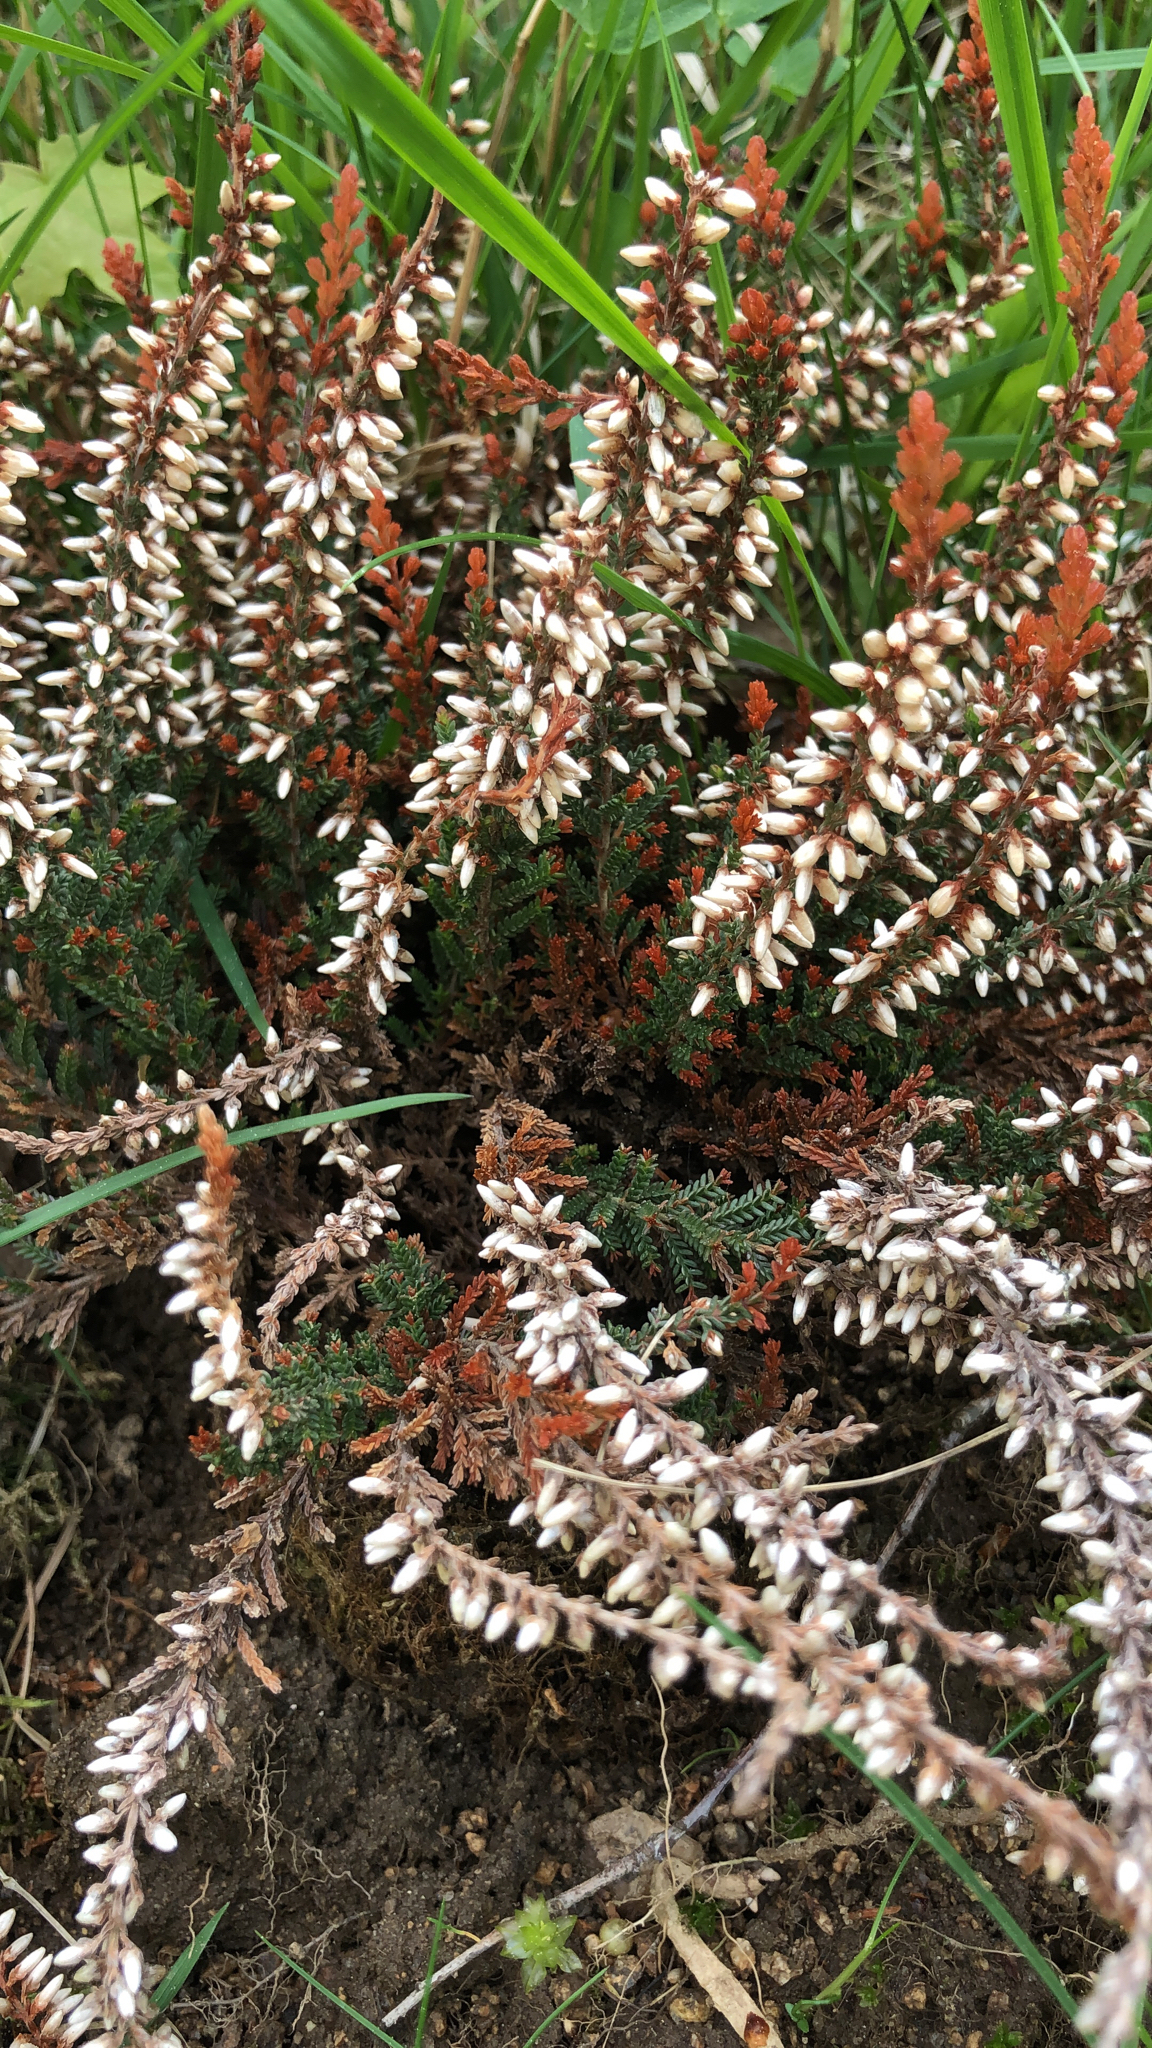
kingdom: Plantae
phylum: Tracheophyta
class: Magnoliopsida
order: Ericales
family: Ericaceae
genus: Calluna
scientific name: Calluna vulgaris
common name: Heather
